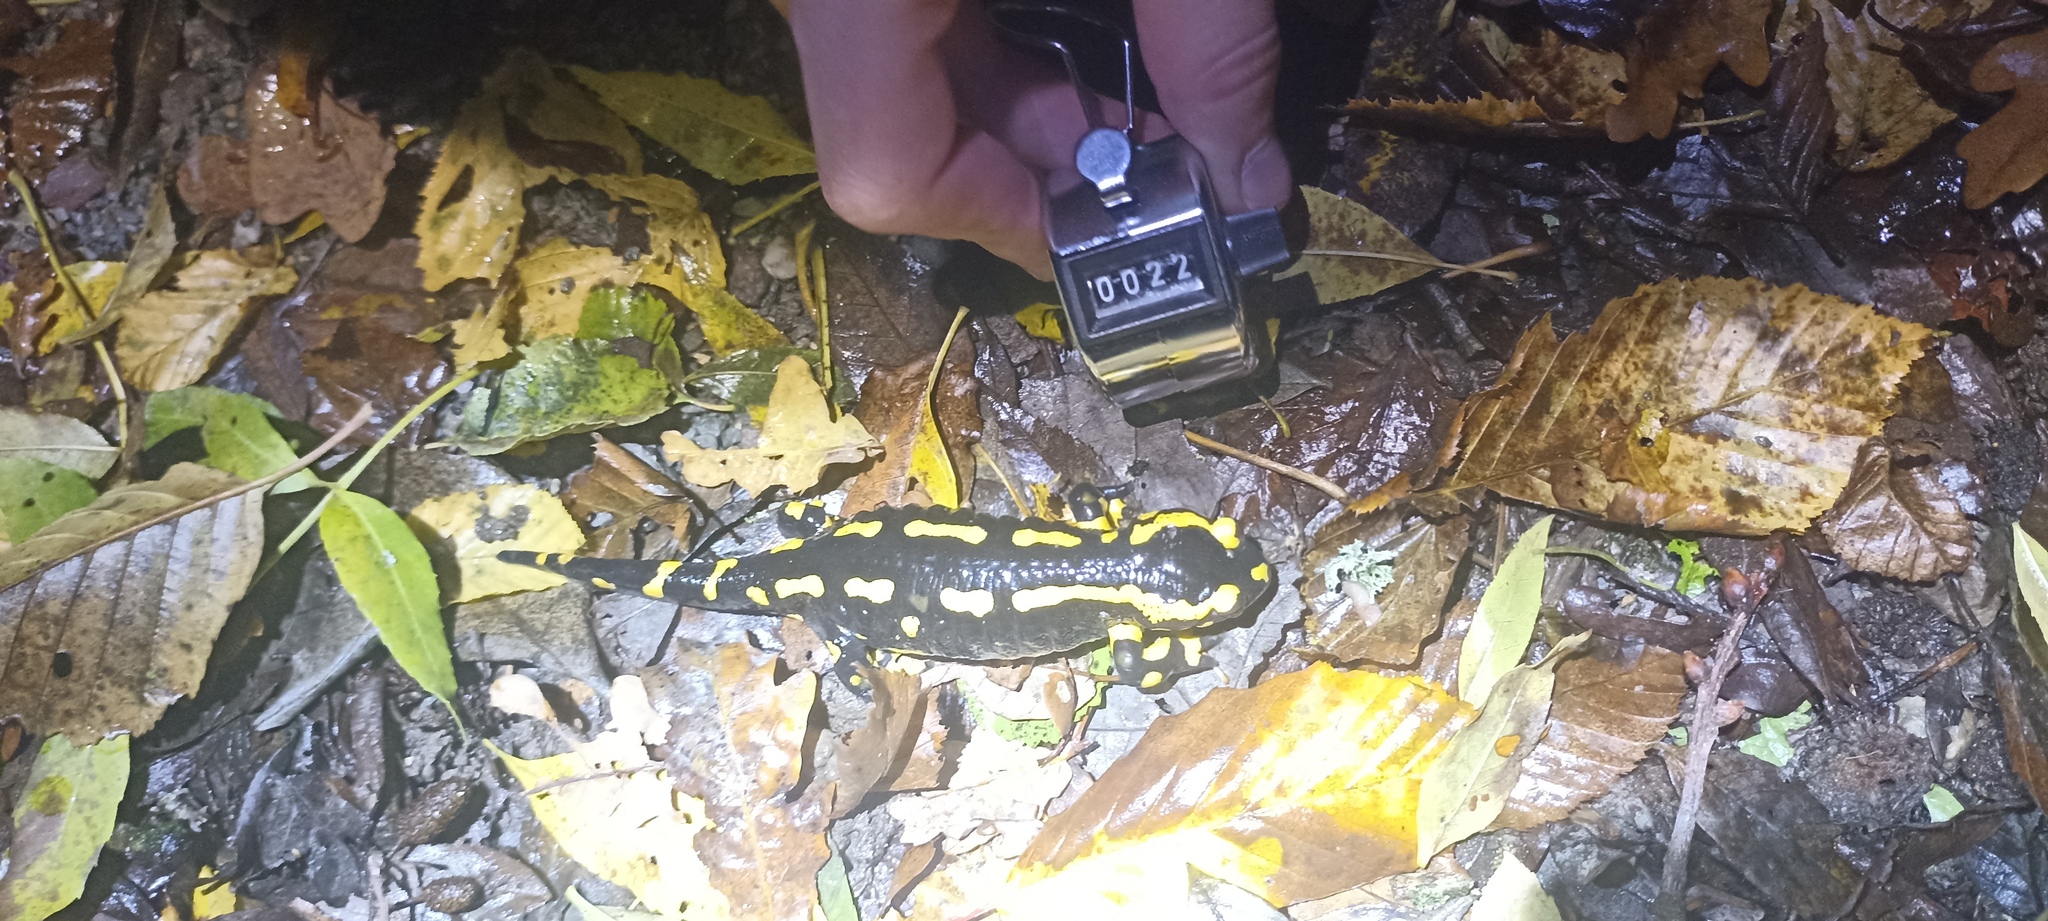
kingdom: Animalia
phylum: Chordata
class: Amphibia
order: Caudata
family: Salamandridae
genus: Salamandra
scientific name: Salamandra salamandra
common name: Fire salamander
